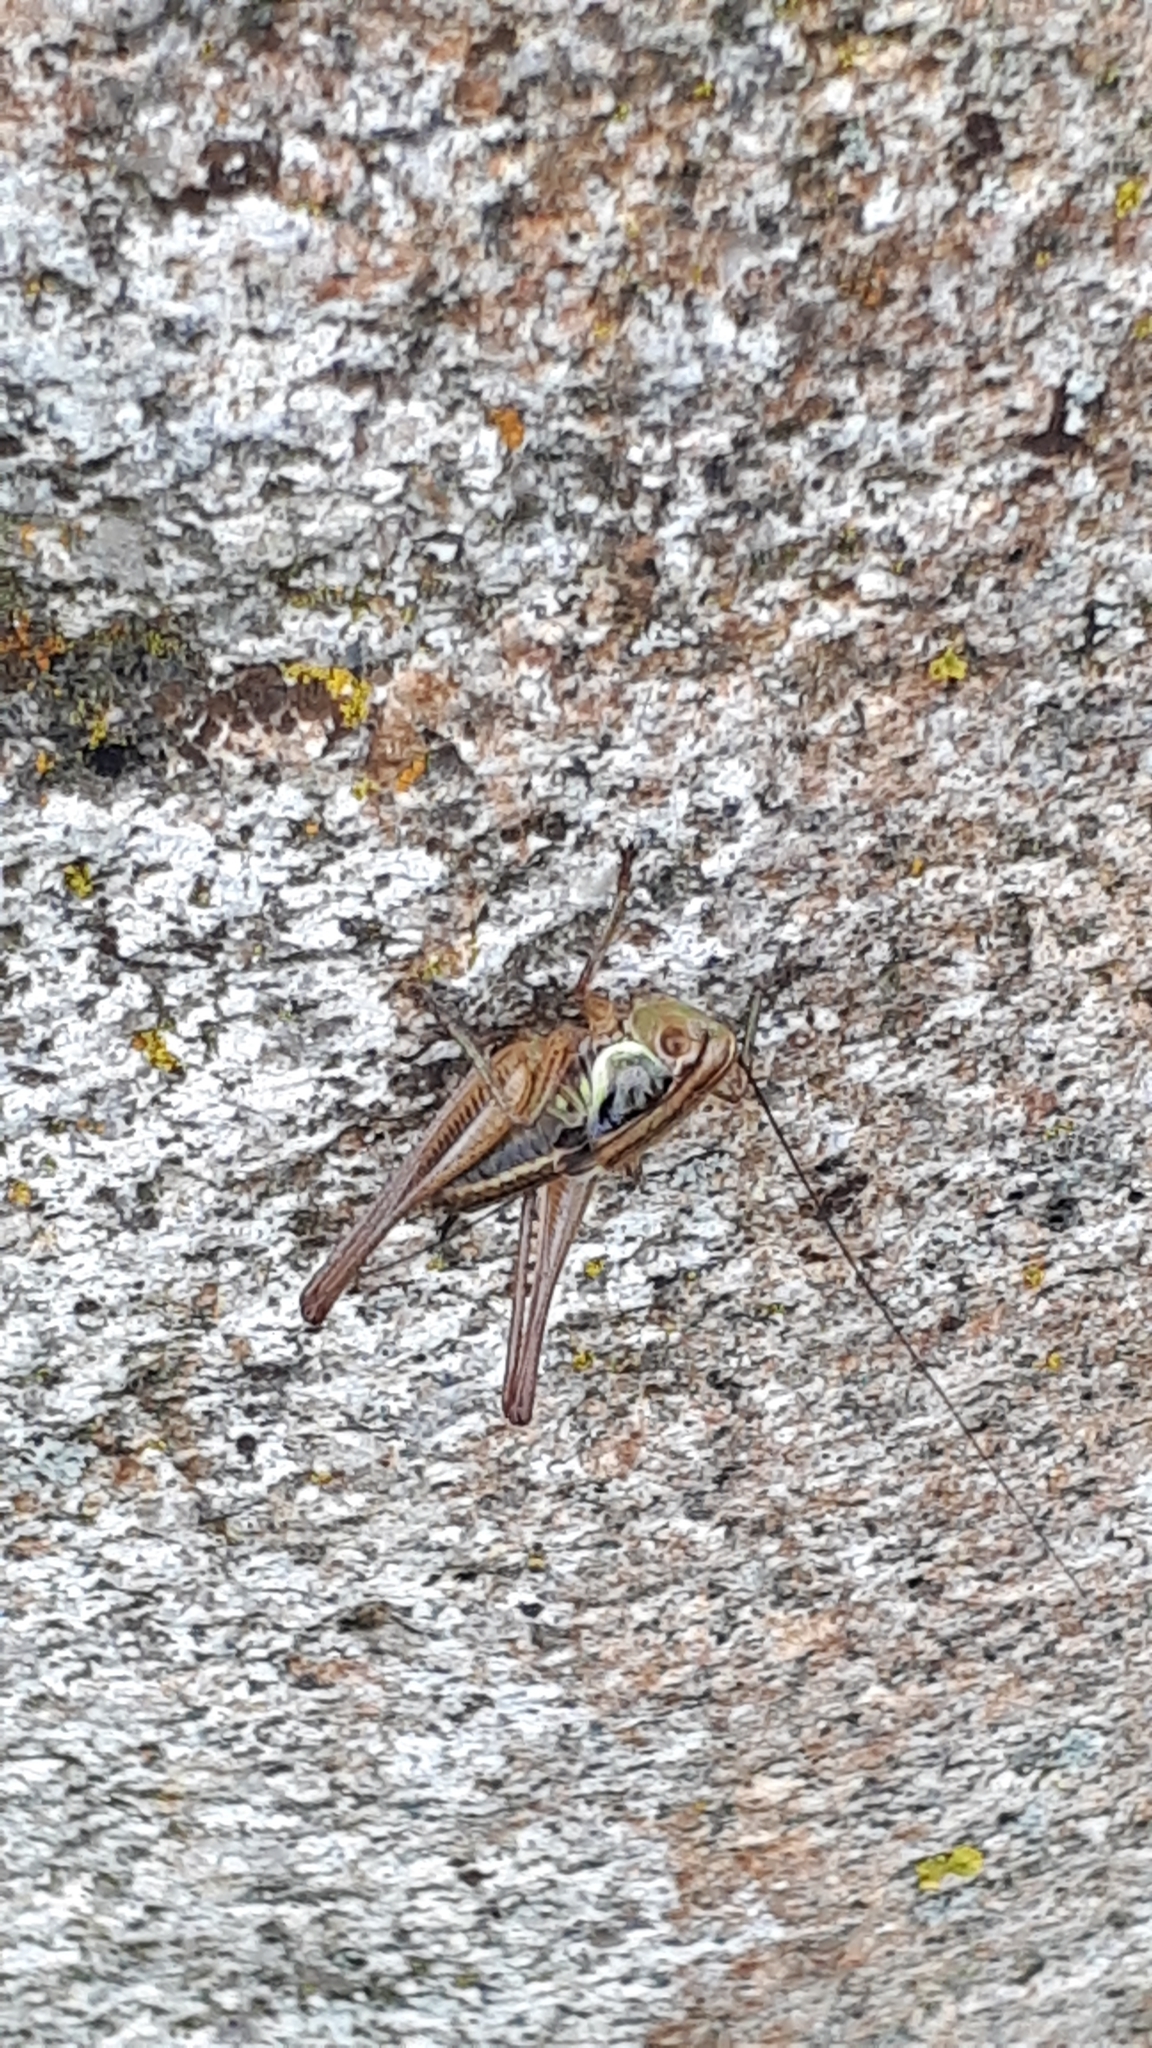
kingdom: Animalia
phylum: Arthropoda
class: Insecta
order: Orthoptera
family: Tettigoniidae
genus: Roeseliana
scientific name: Roeseliana roeselii
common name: Roesel's bush cricket
